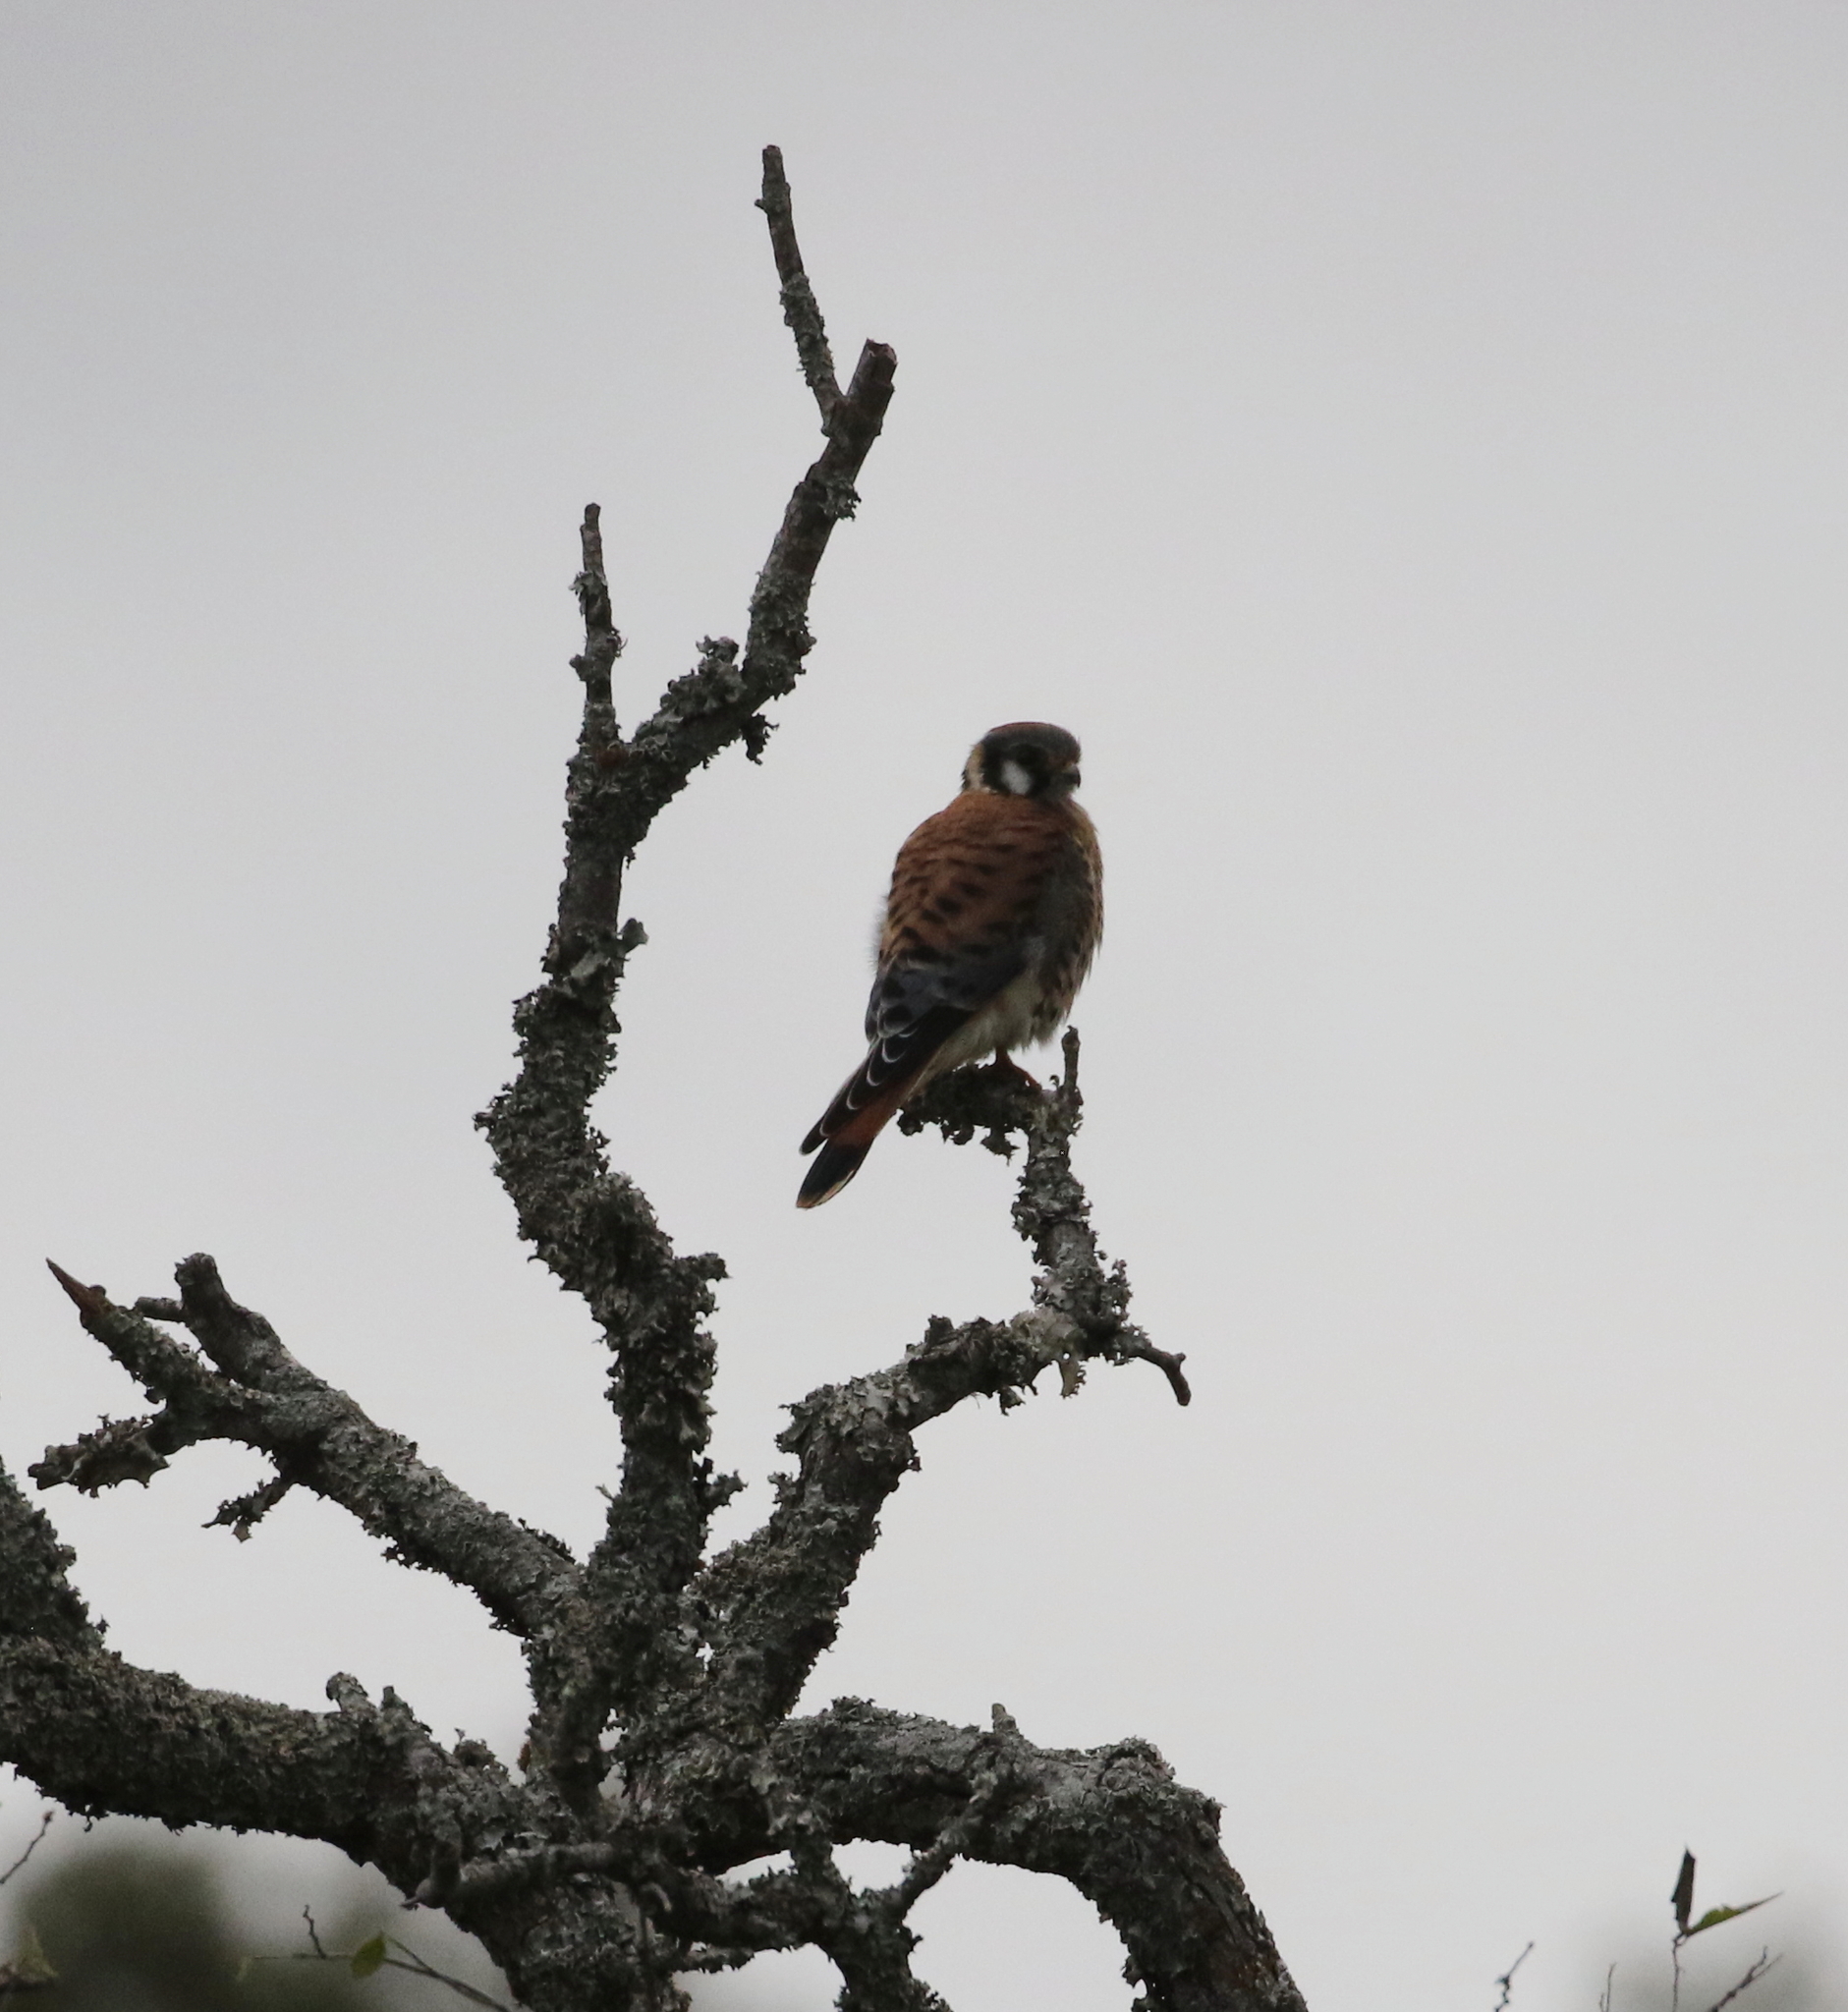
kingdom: Animalia
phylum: Chordata
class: Aves
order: Falconiformes
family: Falconidae
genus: Falco
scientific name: Falco sparverius
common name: American kestrel
